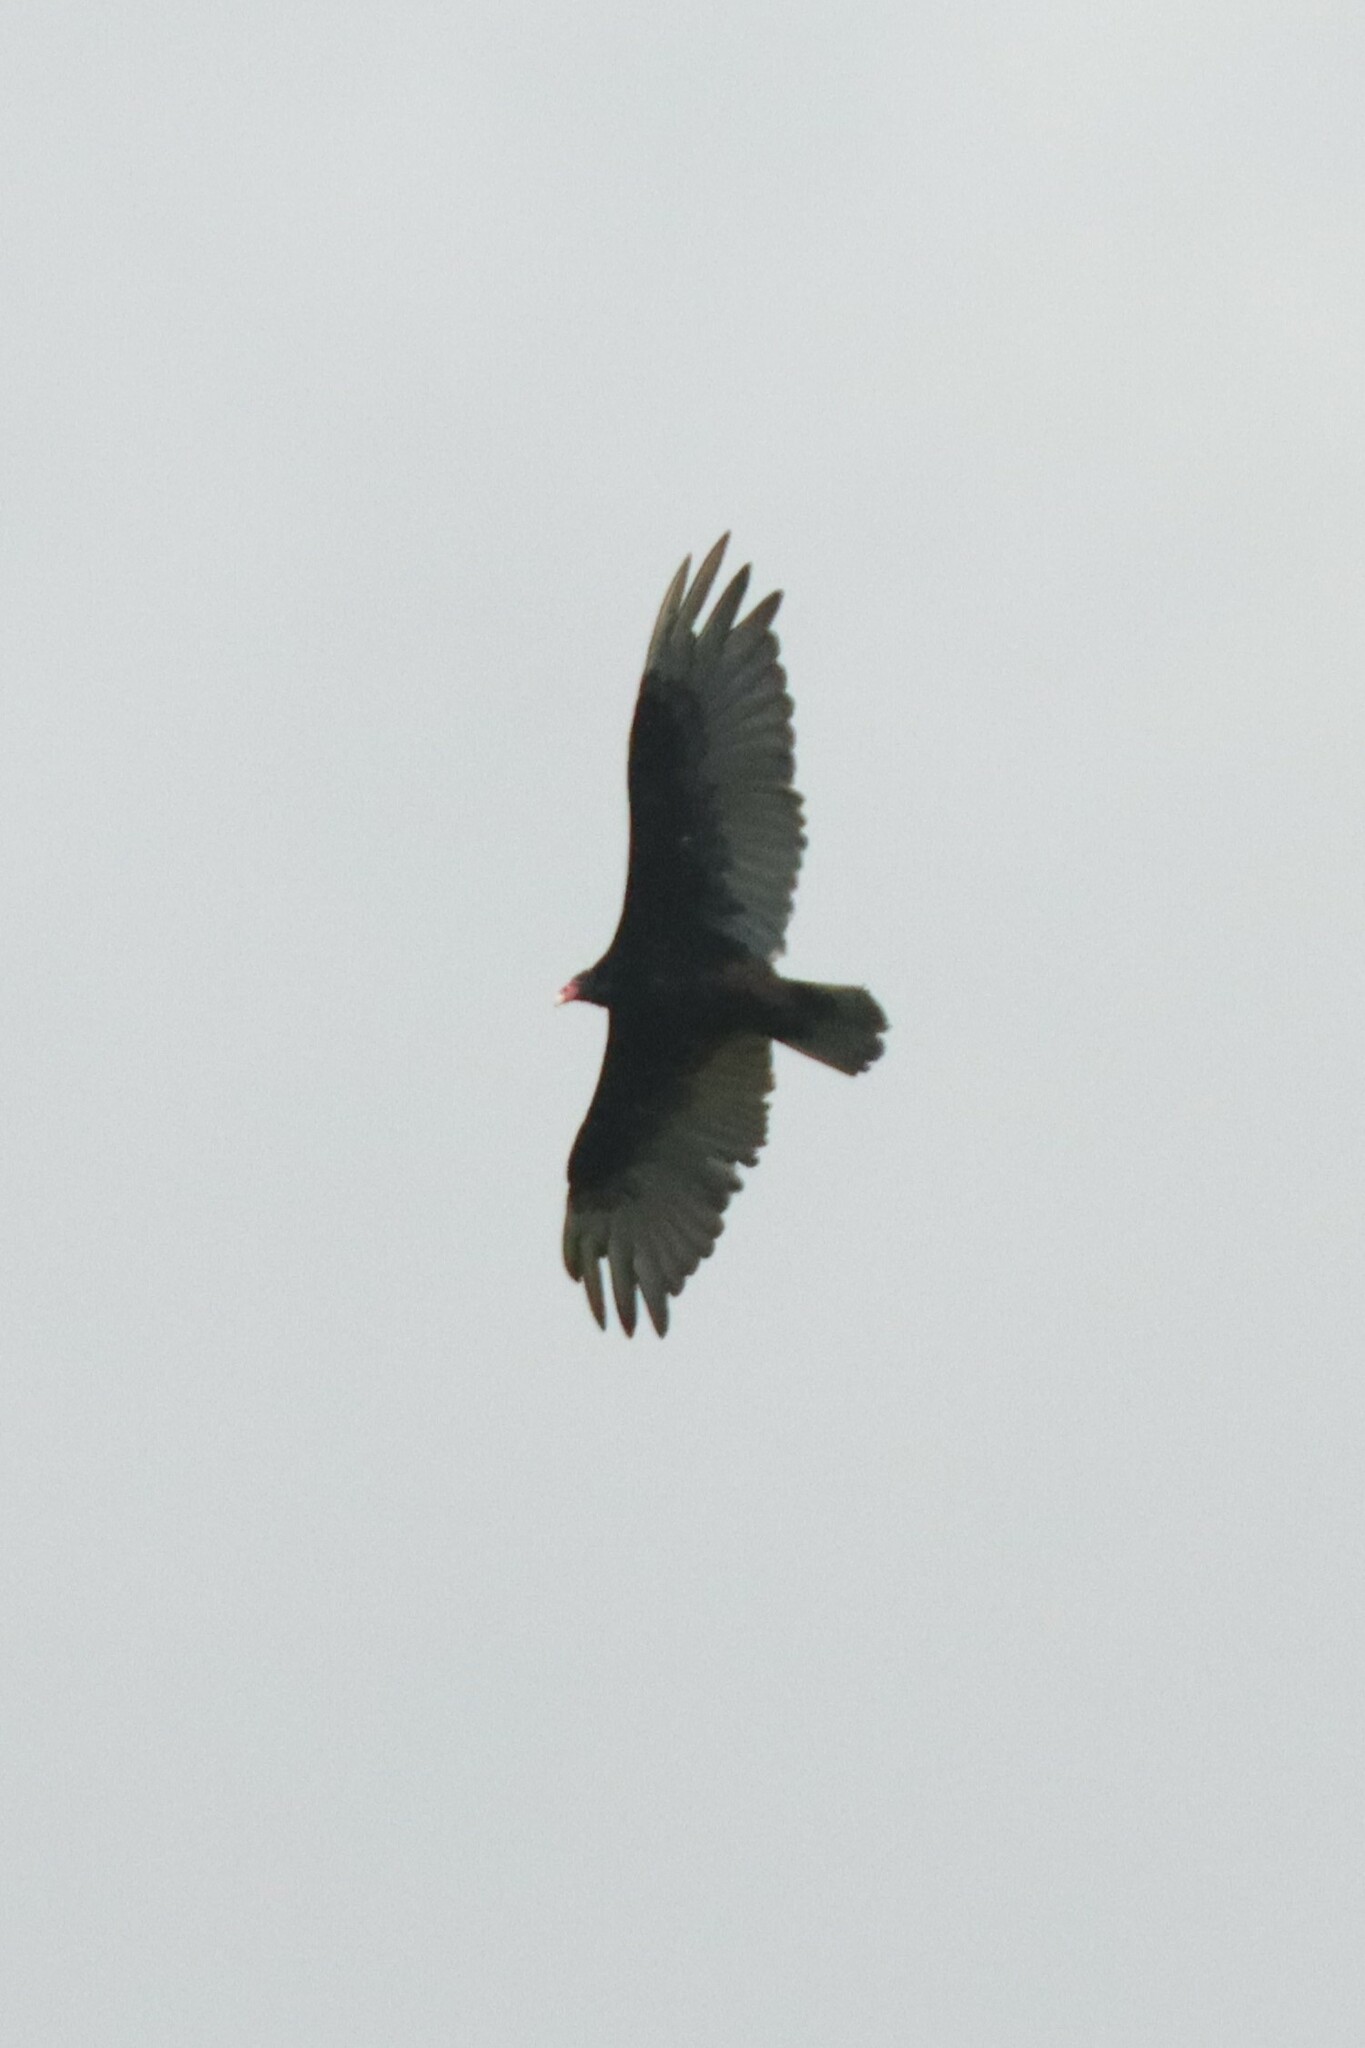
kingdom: Animalia
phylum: Chordata
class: Aves
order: Accipitriformes
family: Cathartidae
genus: Cathartes
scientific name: Cathartes aura
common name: Turkey vulture
